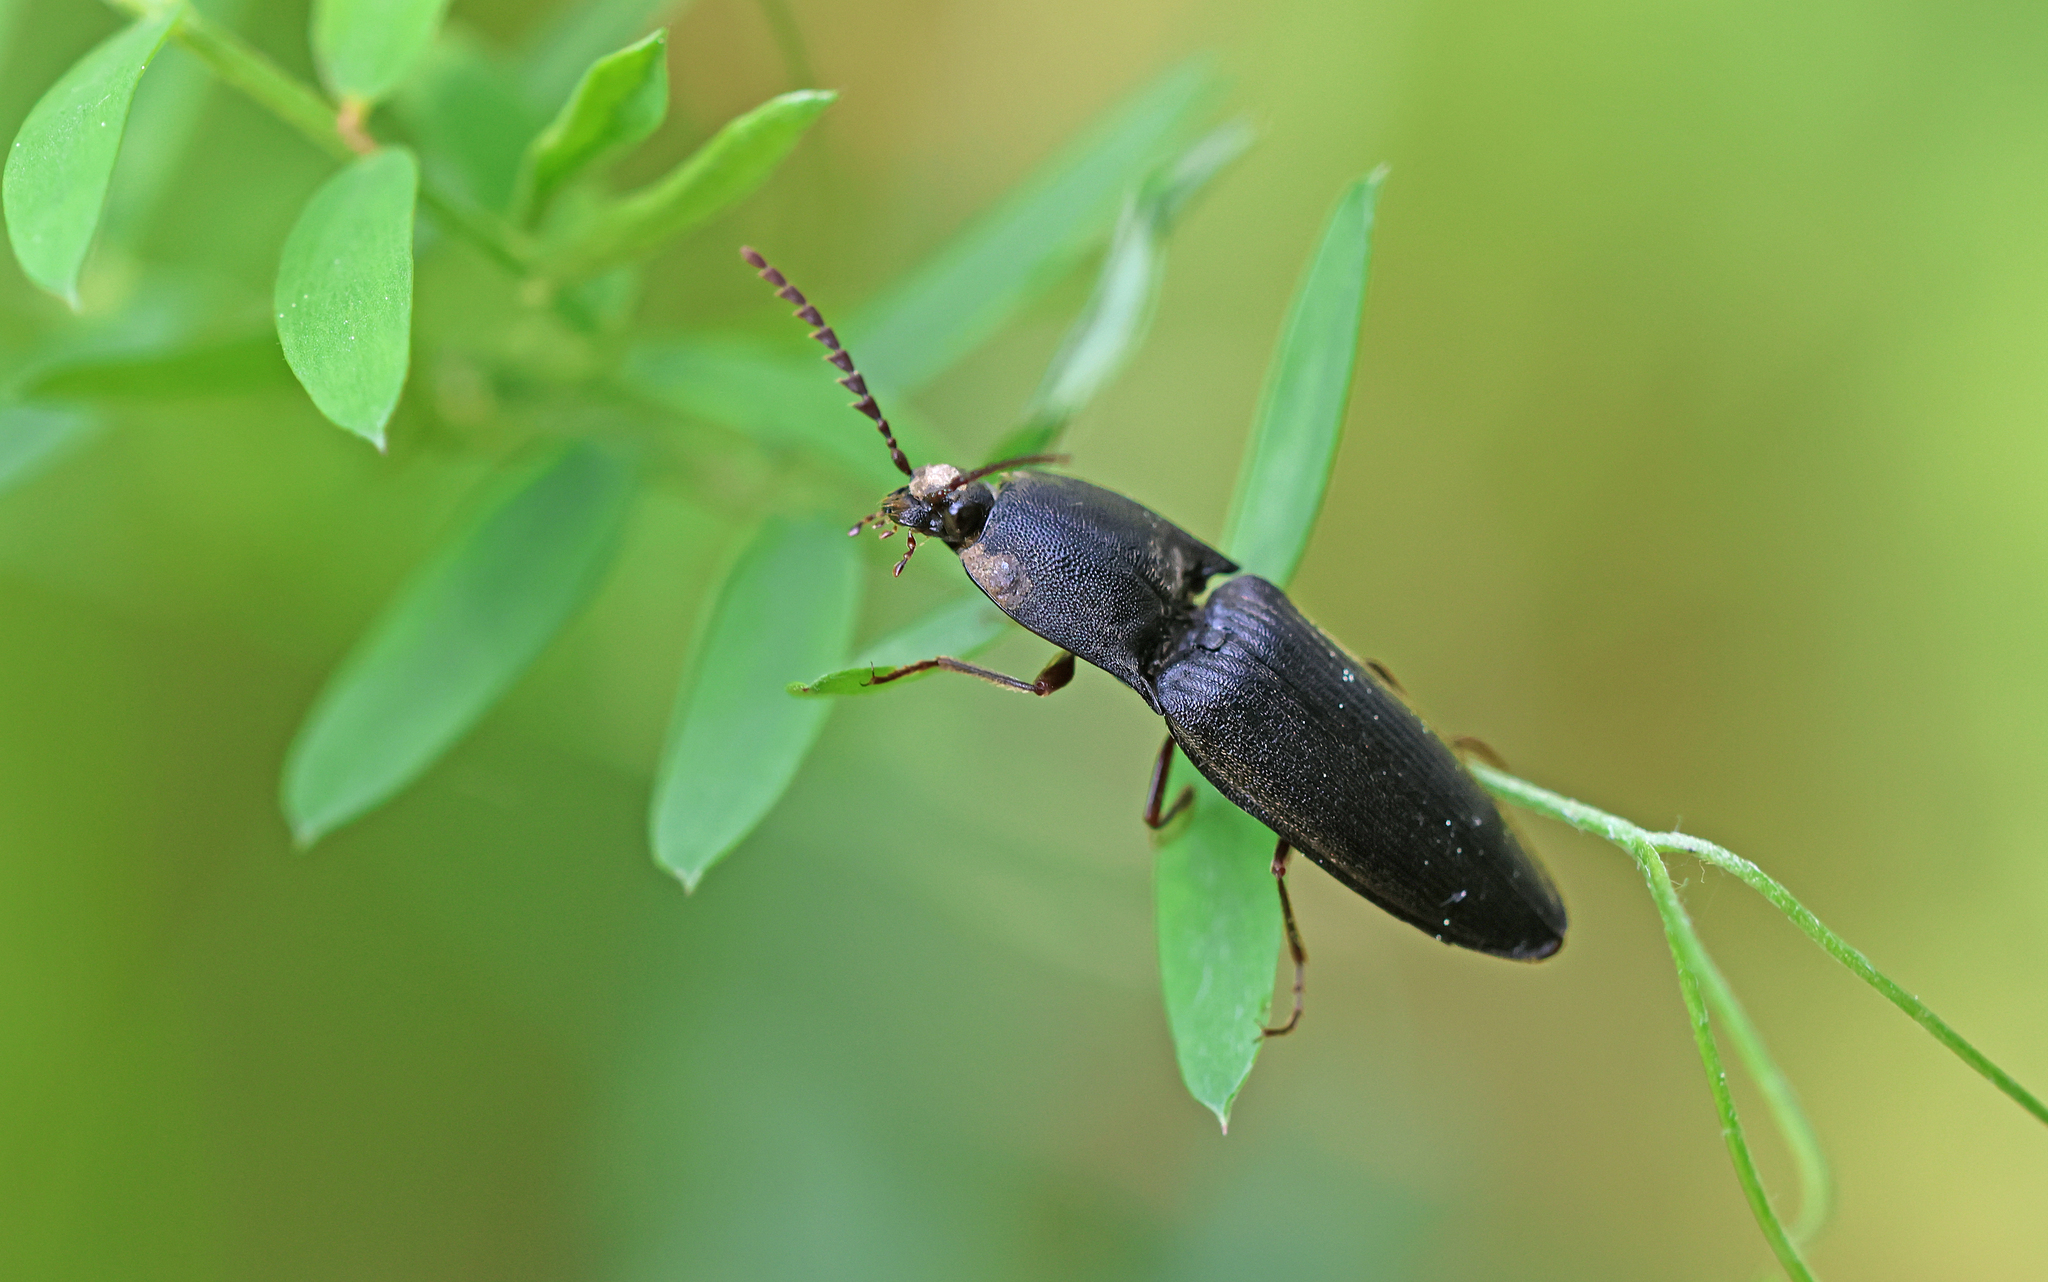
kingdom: Animalia
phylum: Arthropoda
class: Insecta
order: Coleoptera
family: Elateridae
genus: Neopristilophus
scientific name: Neopristilophus insitivus
